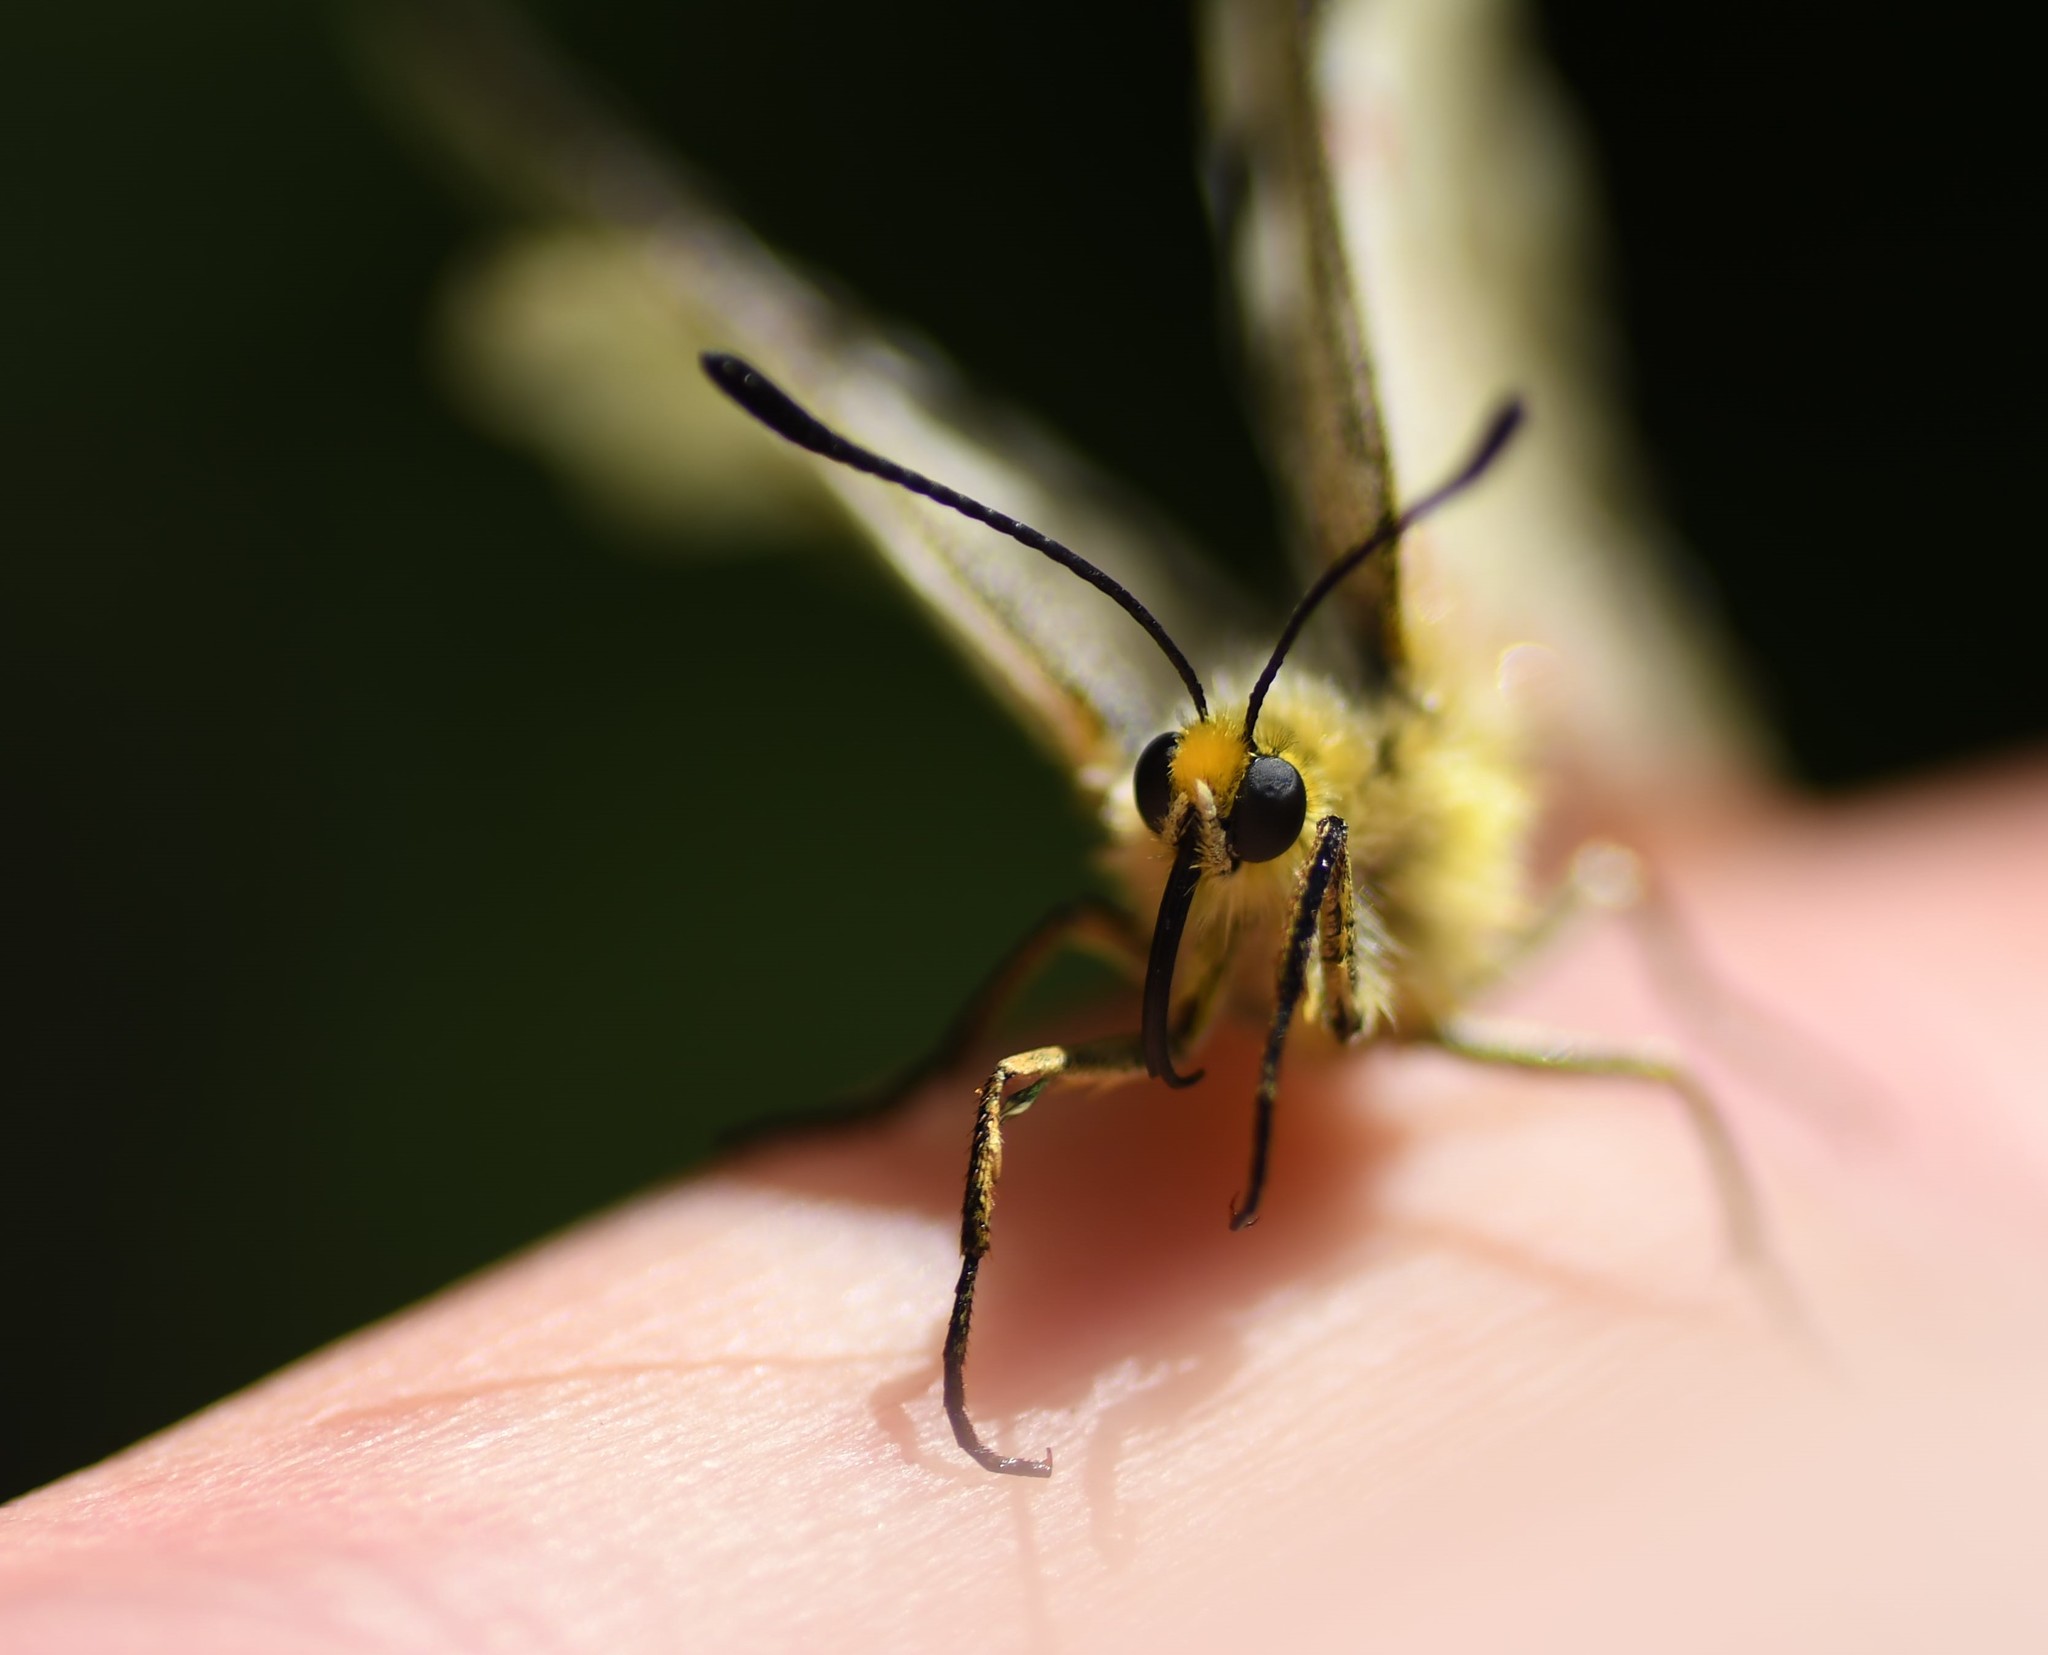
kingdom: Animalia
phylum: Arthropoda
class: Insecta
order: Lepidoptera
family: Papilionidae
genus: Parnassius
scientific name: Parnassius clodius
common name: American apollo
